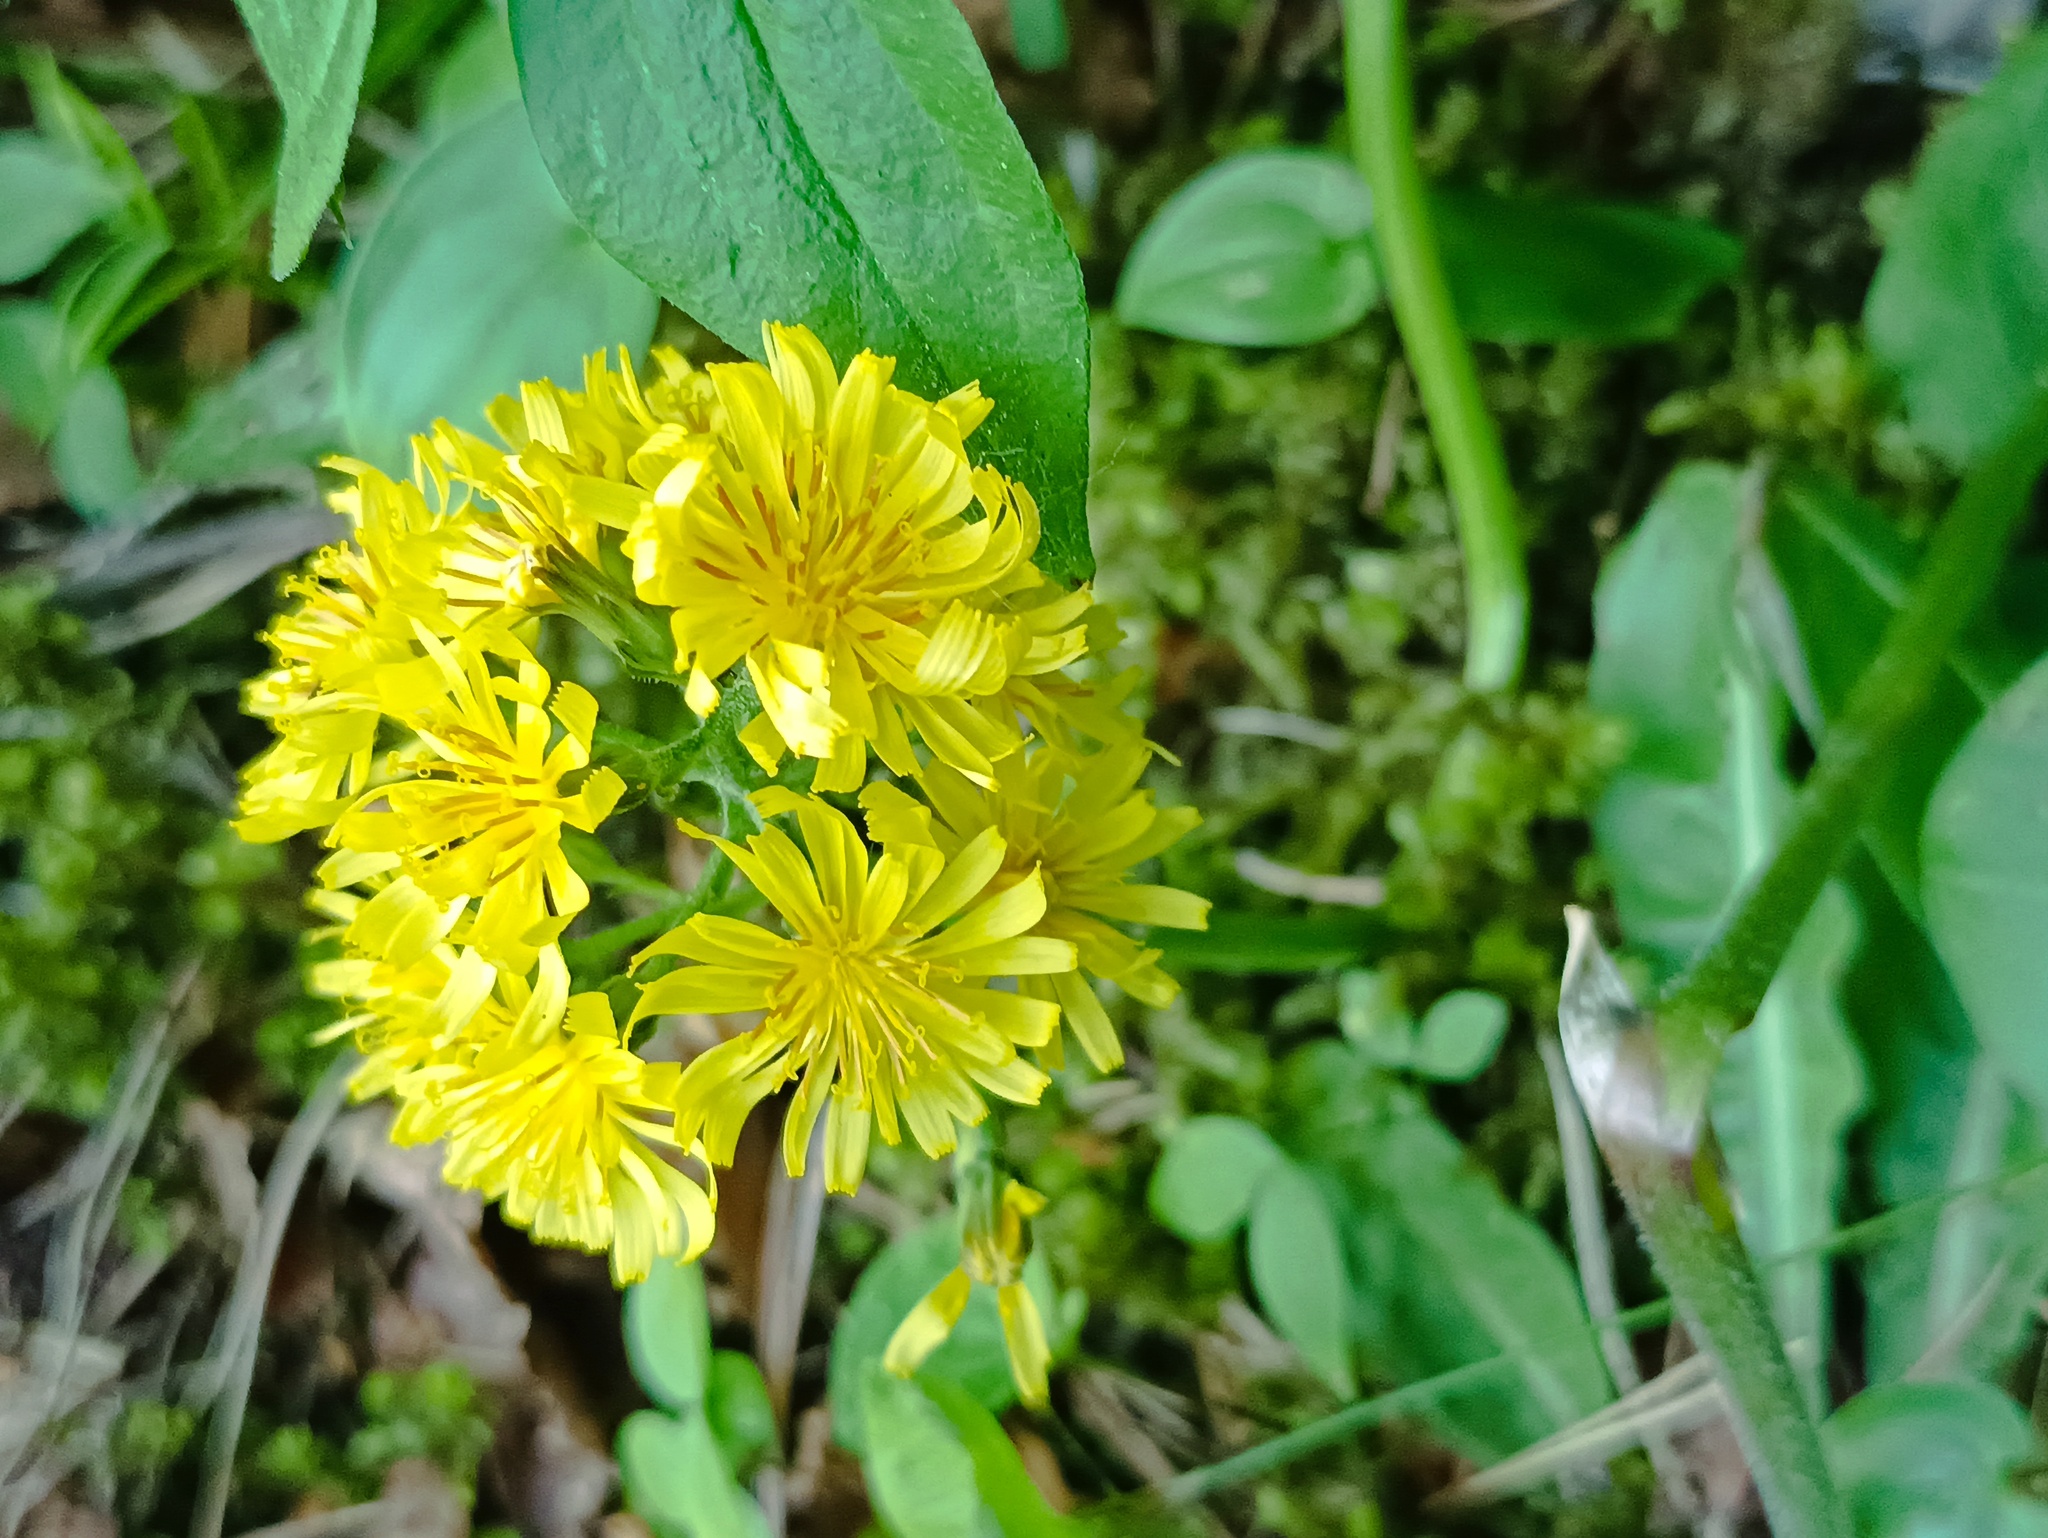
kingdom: Plantae
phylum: Tracheophyta
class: Magnoliopsida
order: Asterales
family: Asteraceae
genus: Crepis
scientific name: Crepis praemorsa
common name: Leafless hawk's-beard
